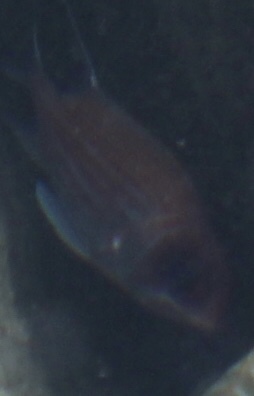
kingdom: Animalia
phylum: Chordata
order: Beryciformes
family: Holocentridae
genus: Holocentrus
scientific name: Holocentrus
